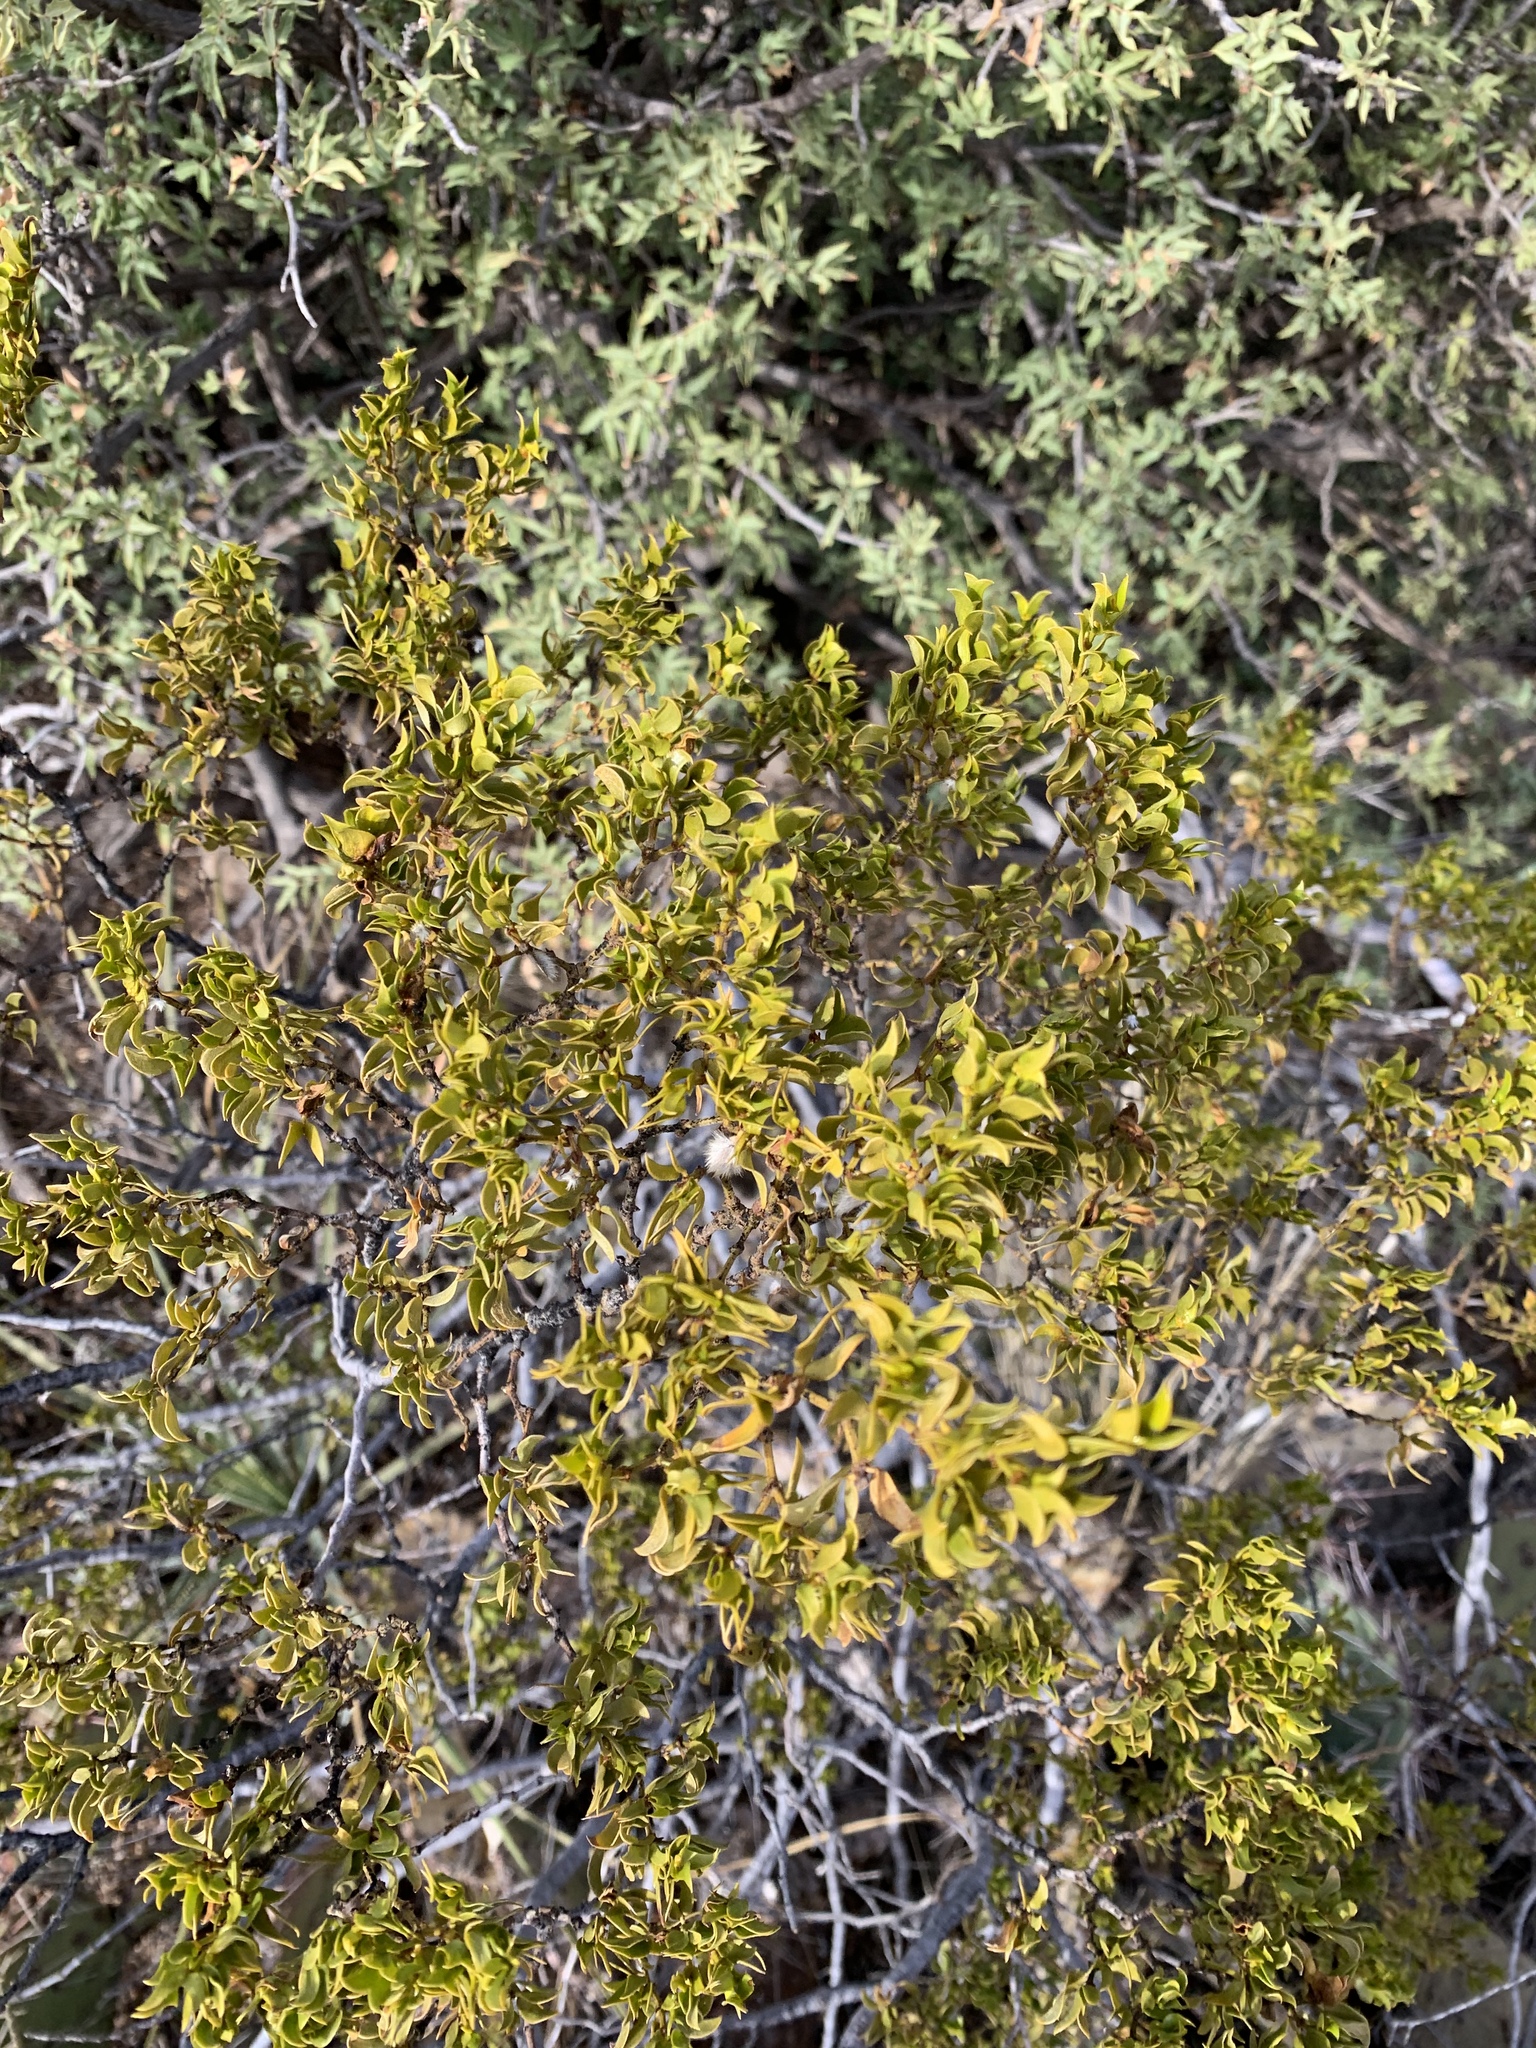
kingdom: Plantae
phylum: Tracheophyta
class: Magnoliopsida
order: Zygophyllales
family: Zygophyllaceae
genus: Larrea
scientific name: Larrea tridentata
